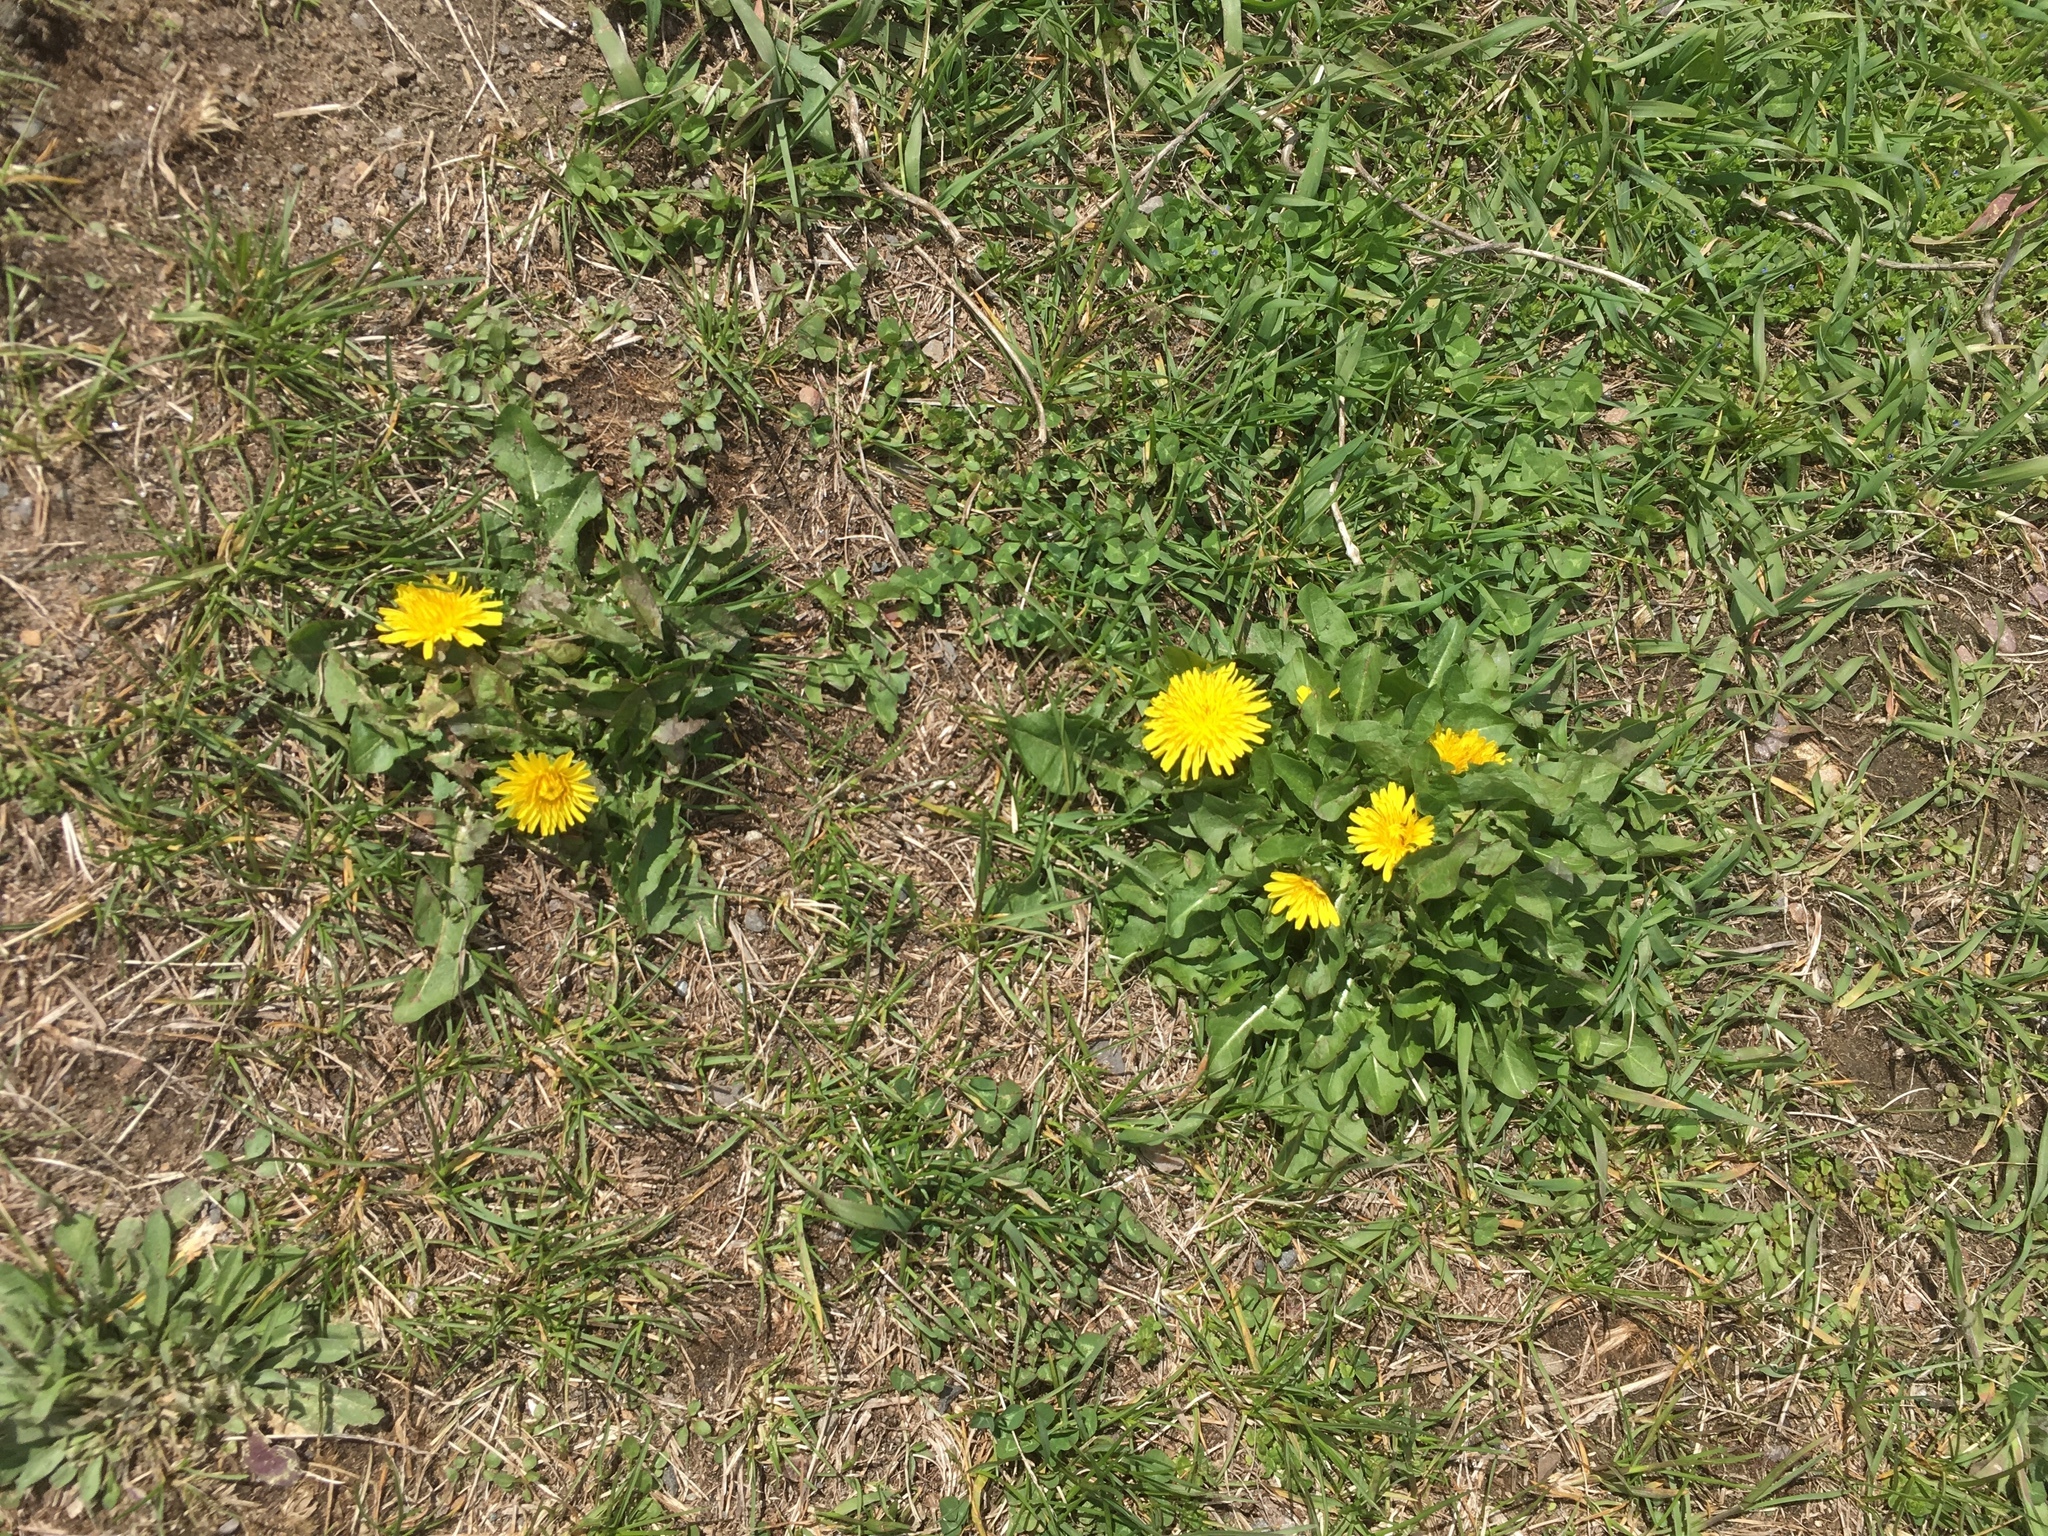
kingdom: Plantae
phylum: Tracheophyta
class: Magnoliopsida
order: Asterales
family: Asteraceae
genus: Taraxacum
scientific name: Taraxacum
